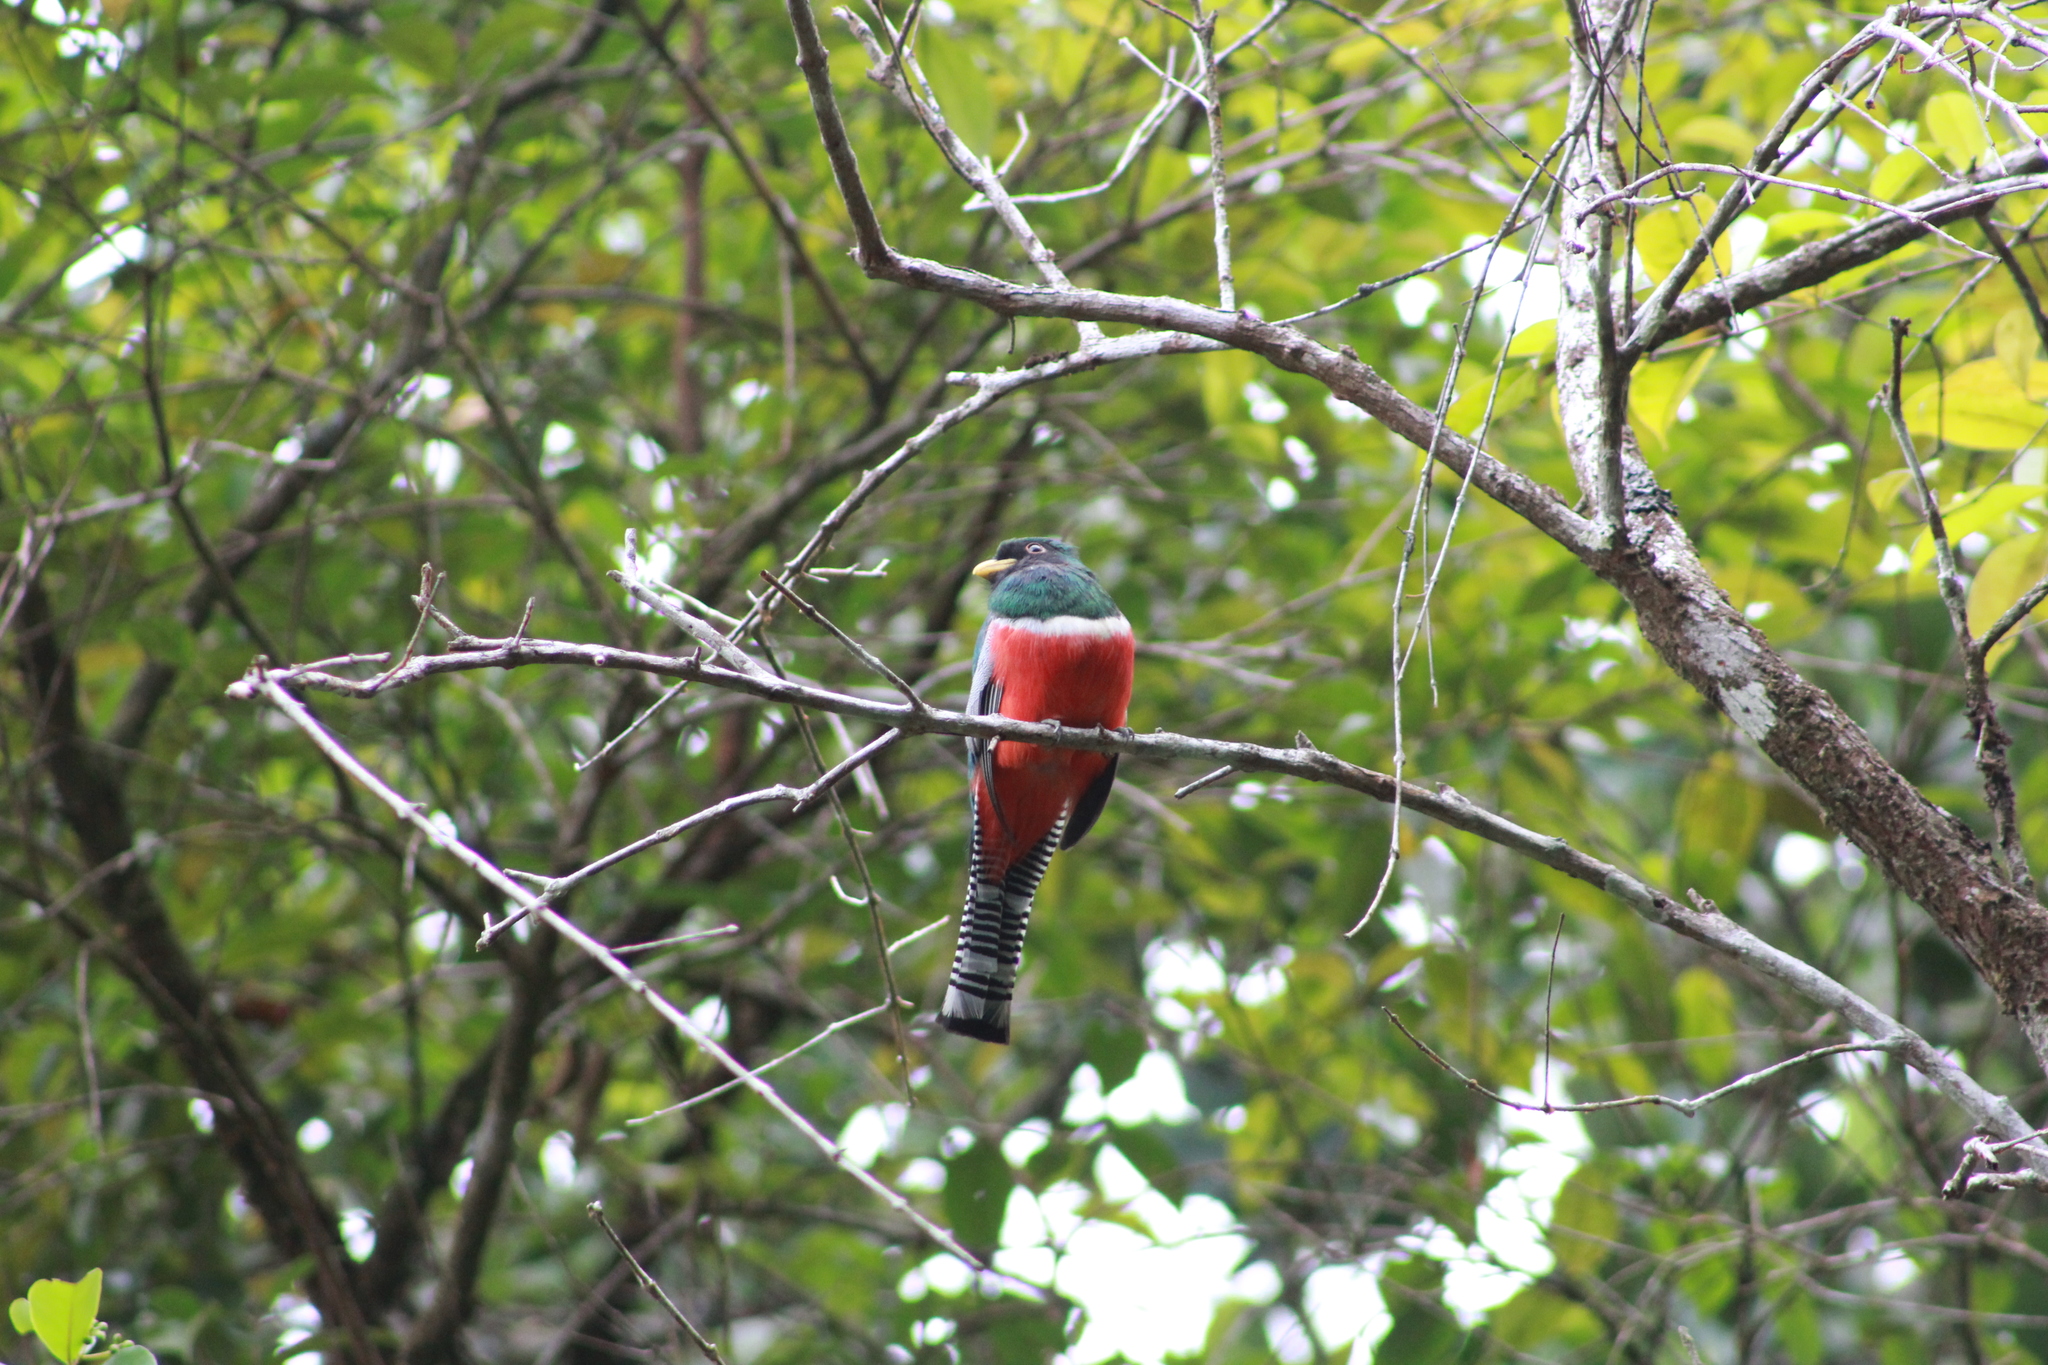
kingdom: Animalia
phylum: Chordata
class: Aves
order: Trogoniformes
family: Trogonidae
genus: Trogon
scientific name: Trogon collaris
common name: Collared trogon
